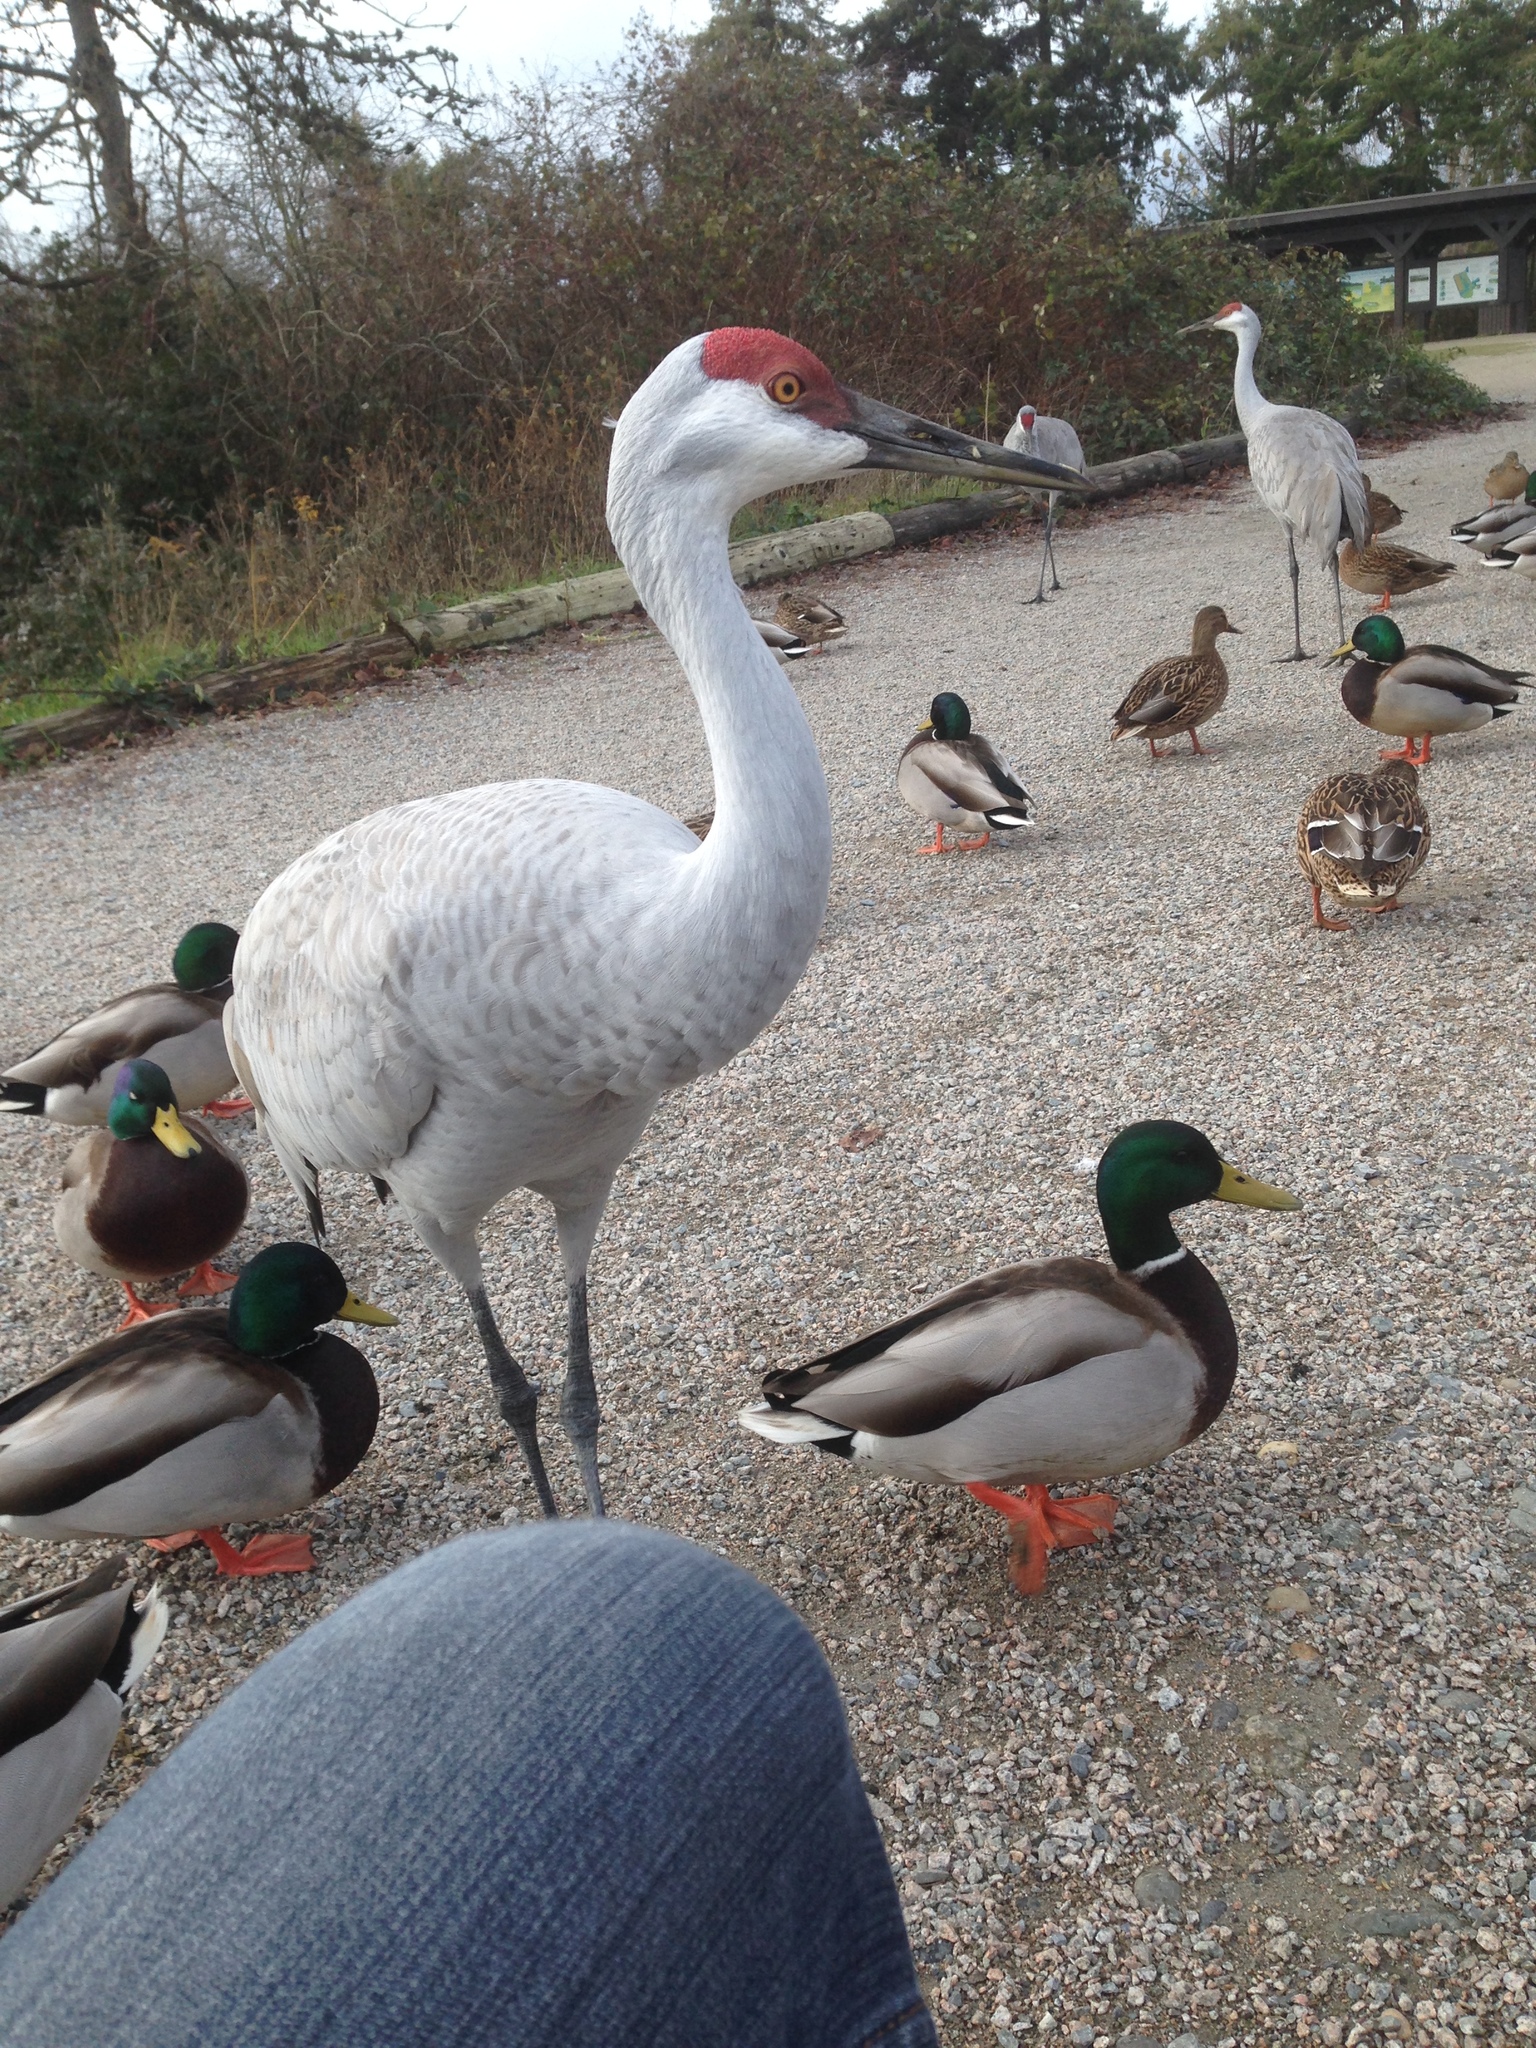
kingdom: Animalia
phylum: Chordata
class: Aves
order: Anseriformes
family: Anatidae
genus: Anas
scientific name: Anas platyrhynchos
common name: Mallard
